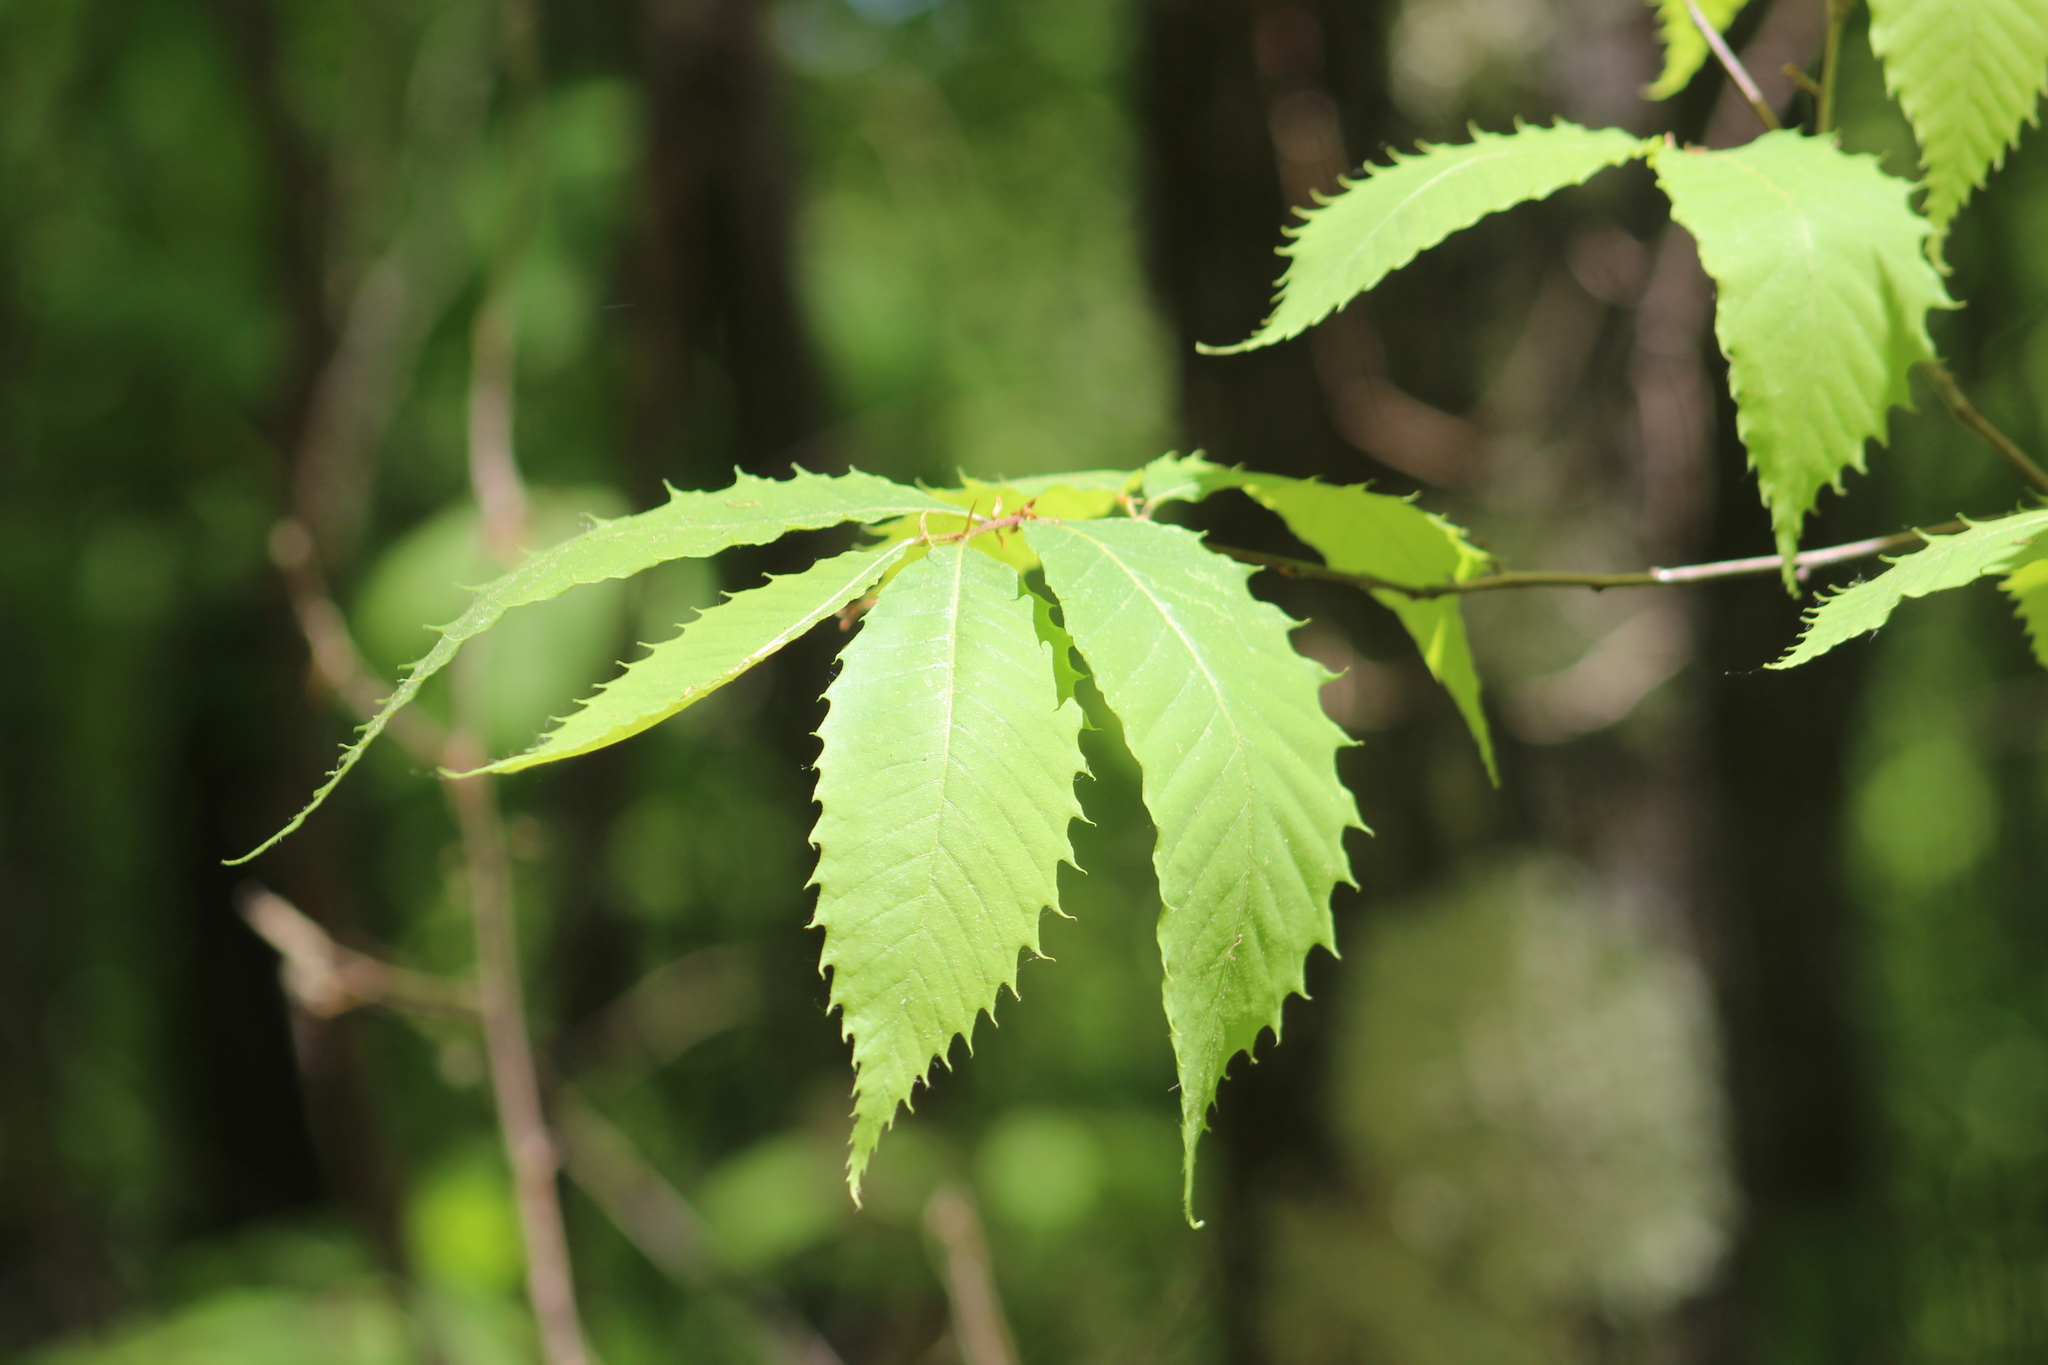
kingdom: Plantae
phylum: Tracheophyta
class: Magnoliopsida
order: Fagales
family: Fagaceae
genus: Castanea
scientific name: Castanea dentata
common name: American chestnut
